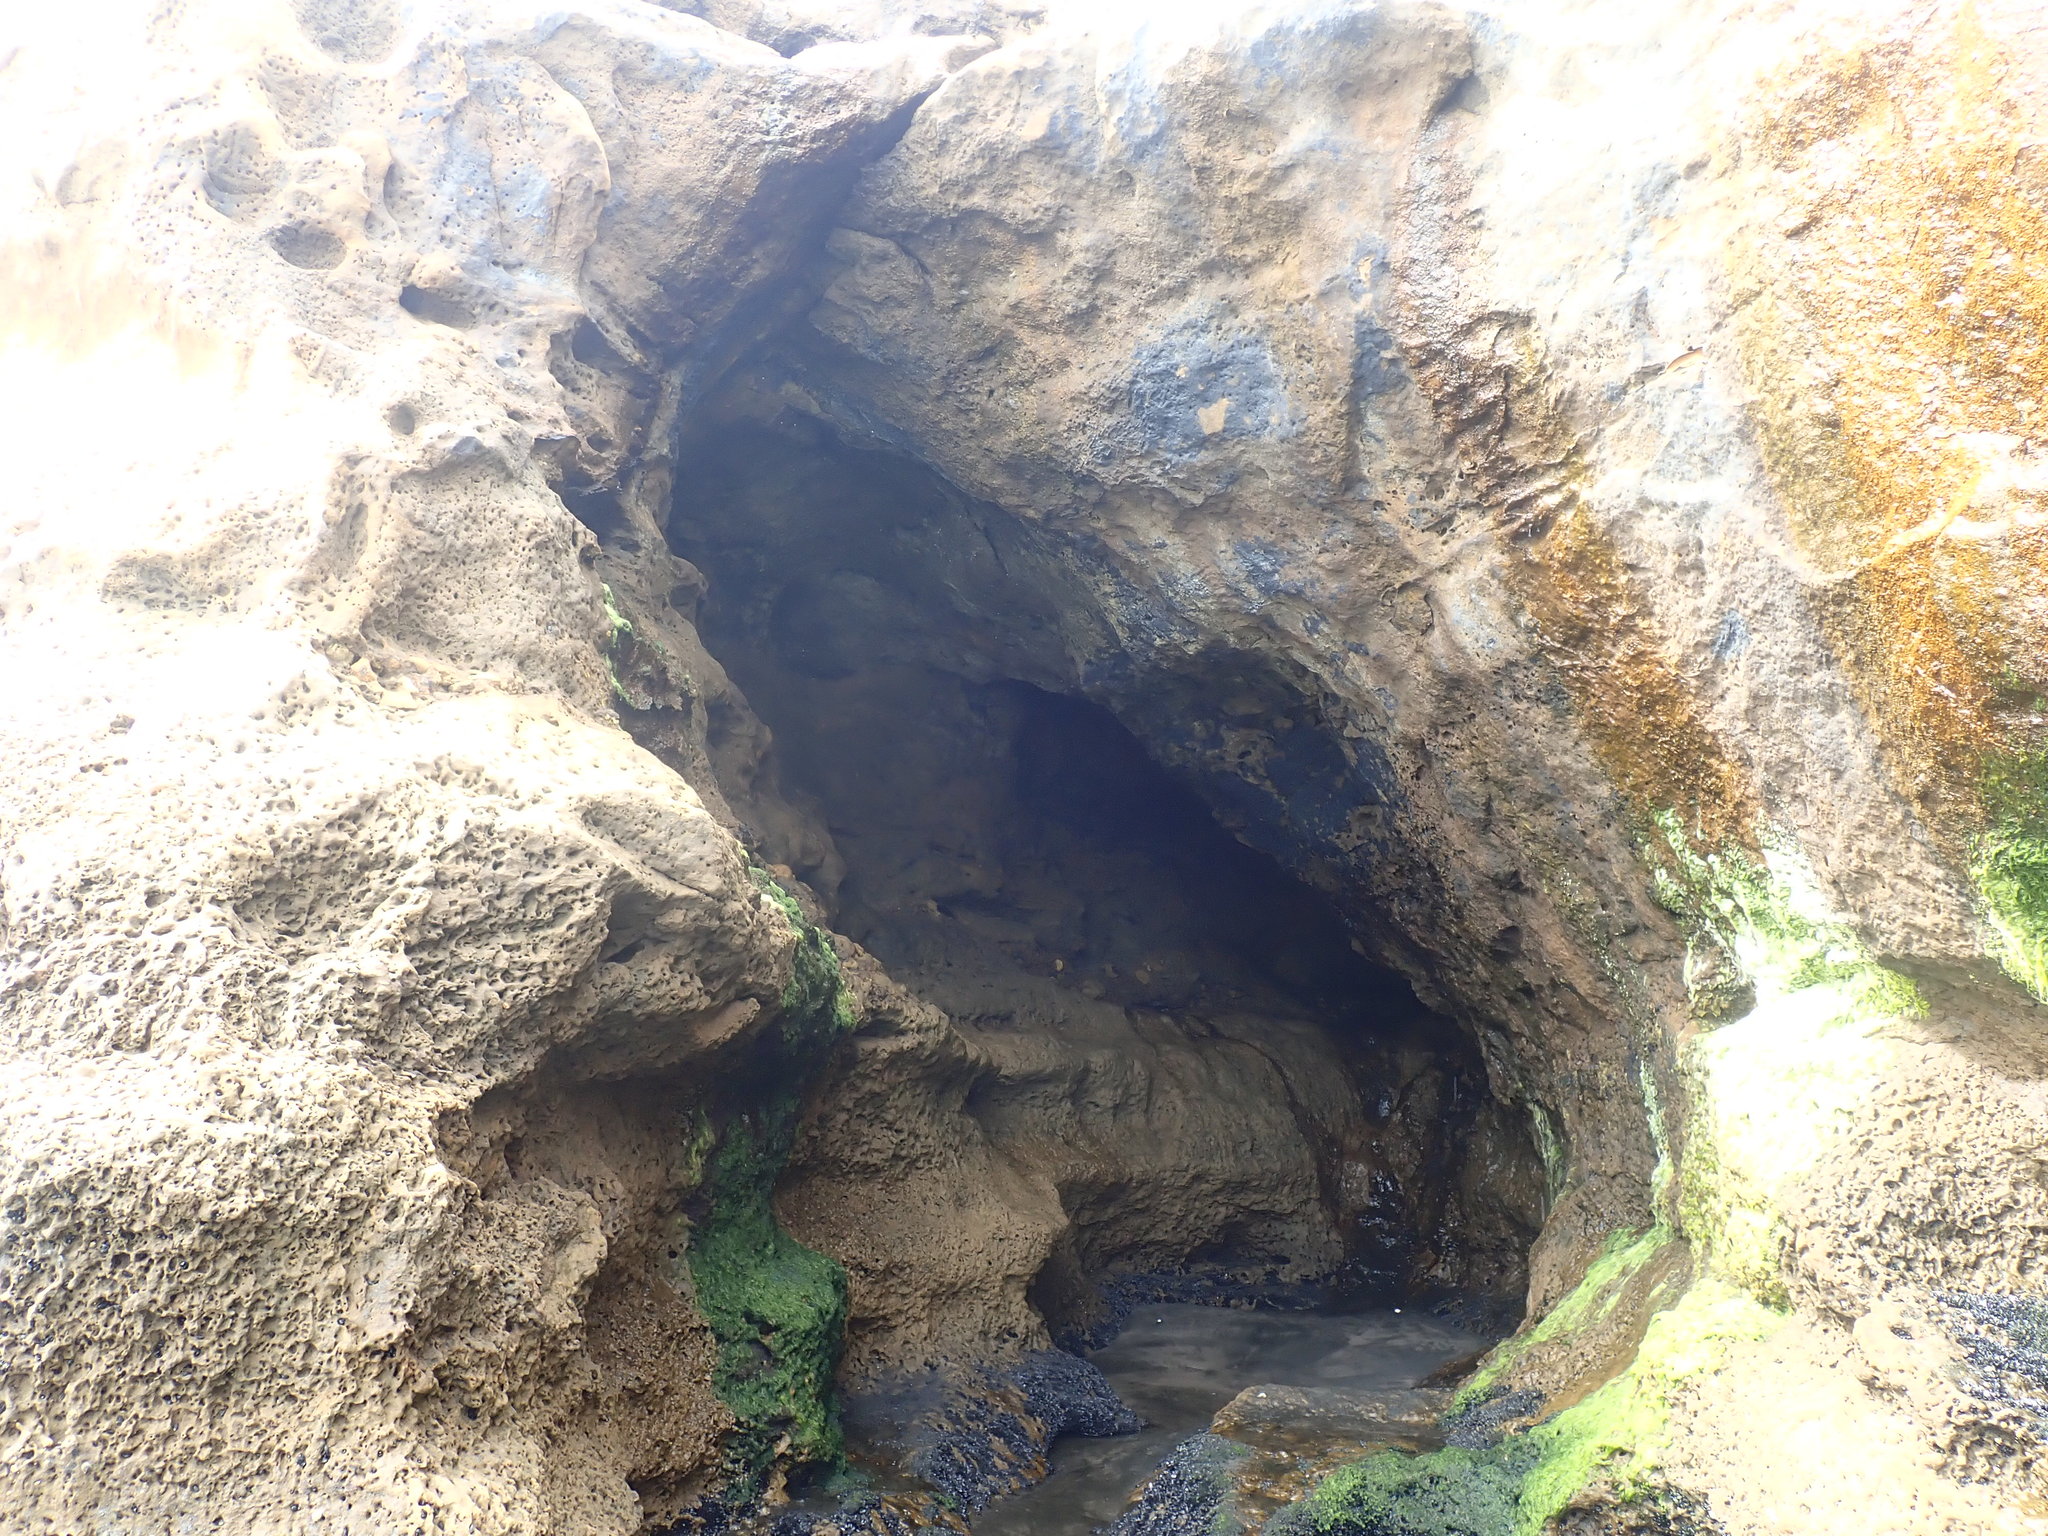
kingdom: Animalia
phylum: Mollusca
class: Gastropoda
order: Ellobiida
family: Ellobiidae
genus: Marinula
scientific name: Marinula filholi
